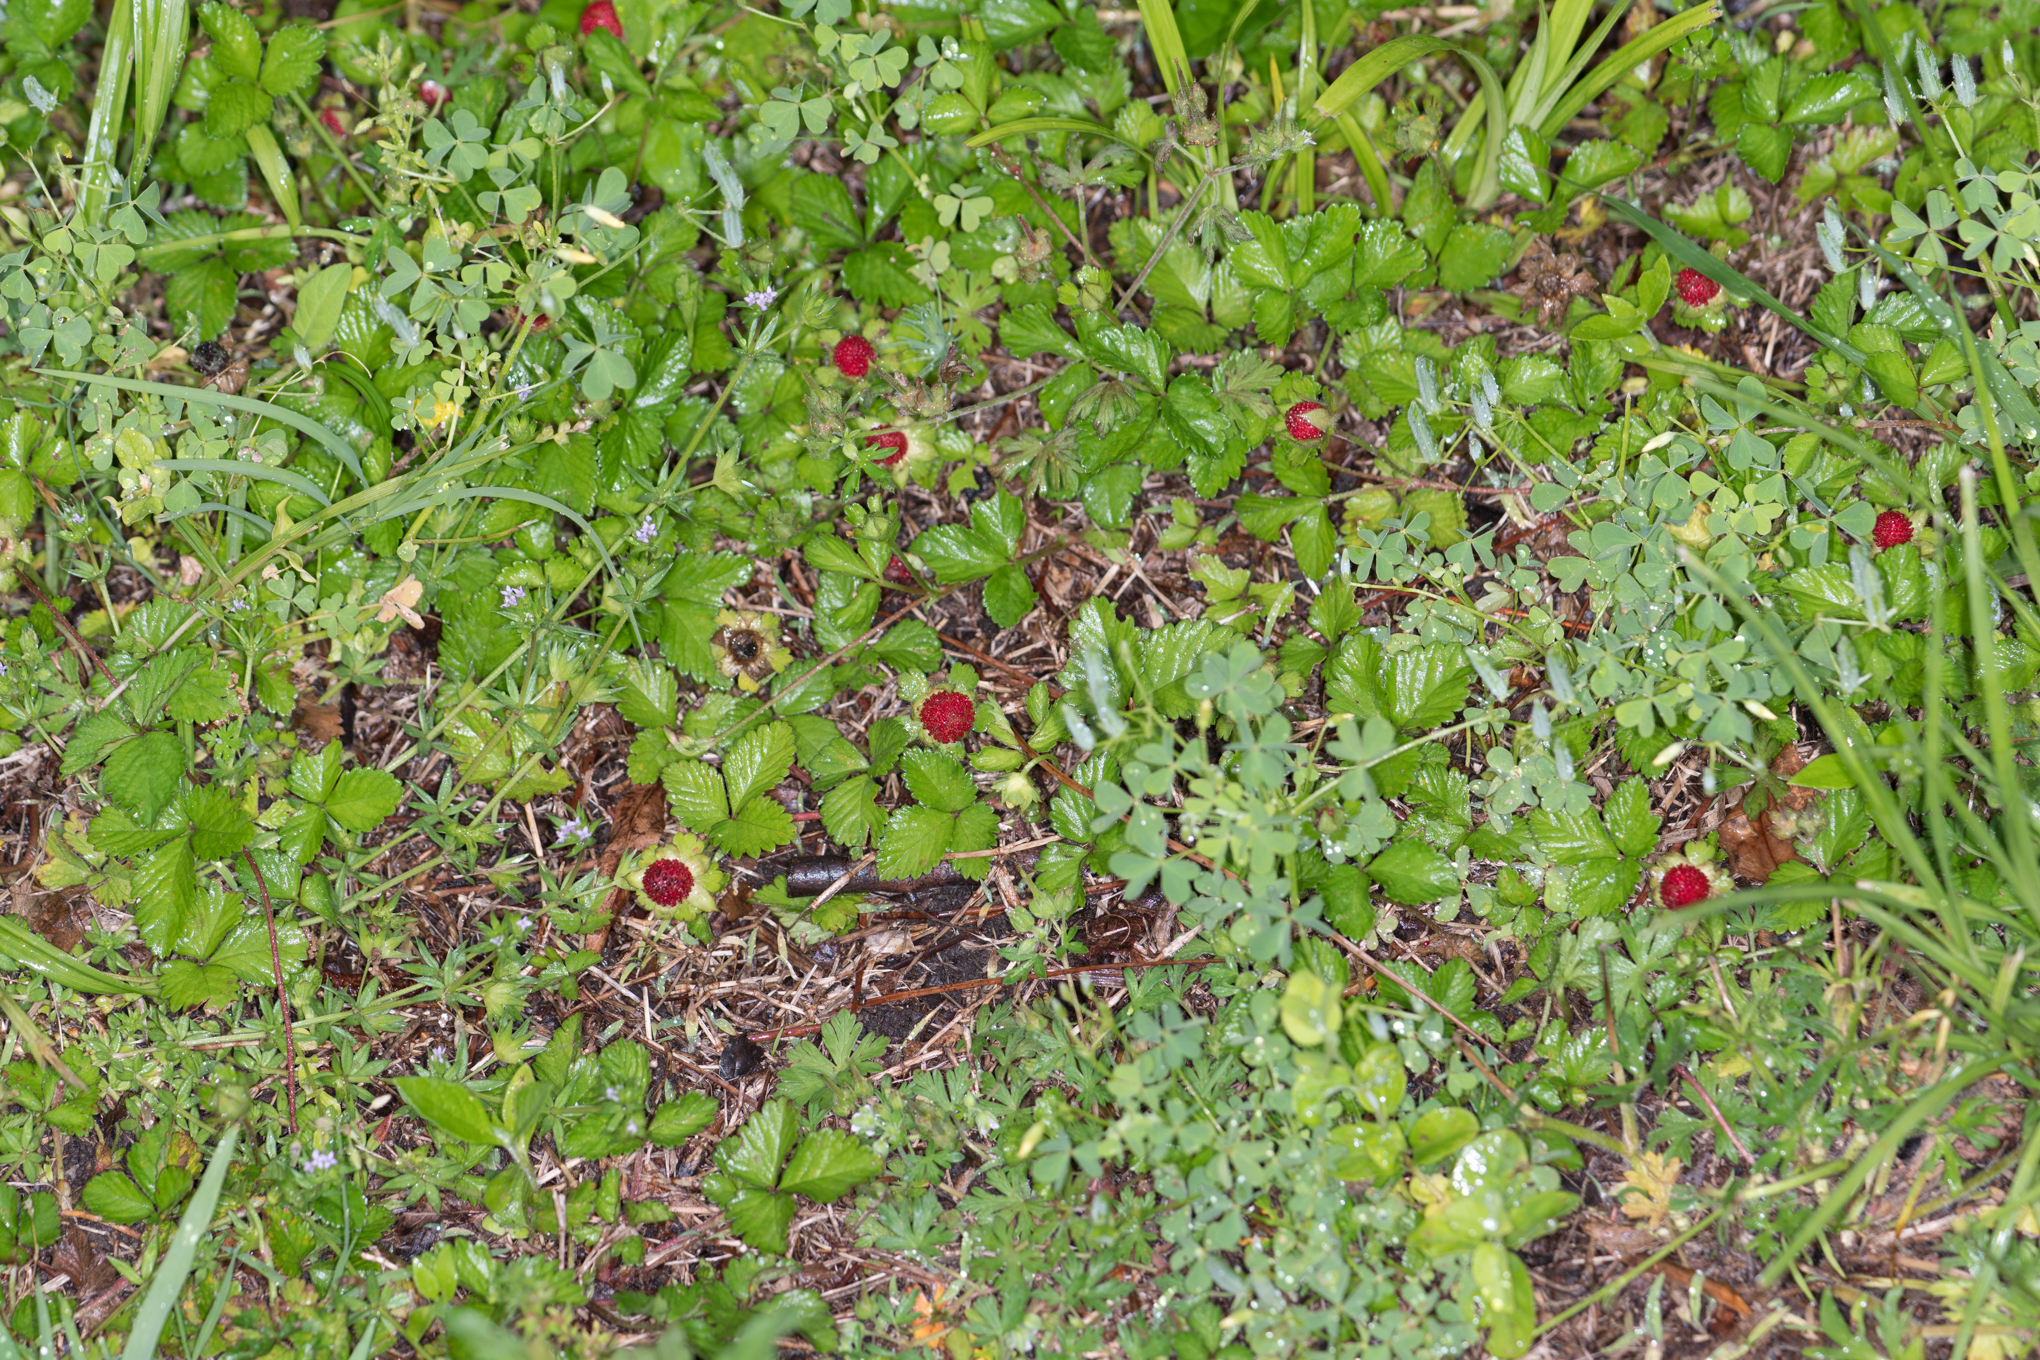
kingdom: Plantae
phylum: Tracheophyta
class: Magnoliopsida
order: Rosales
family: Rosaceae
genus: Potentilla
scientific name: Potentilla indica
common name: Yellow-flowered strawberry
